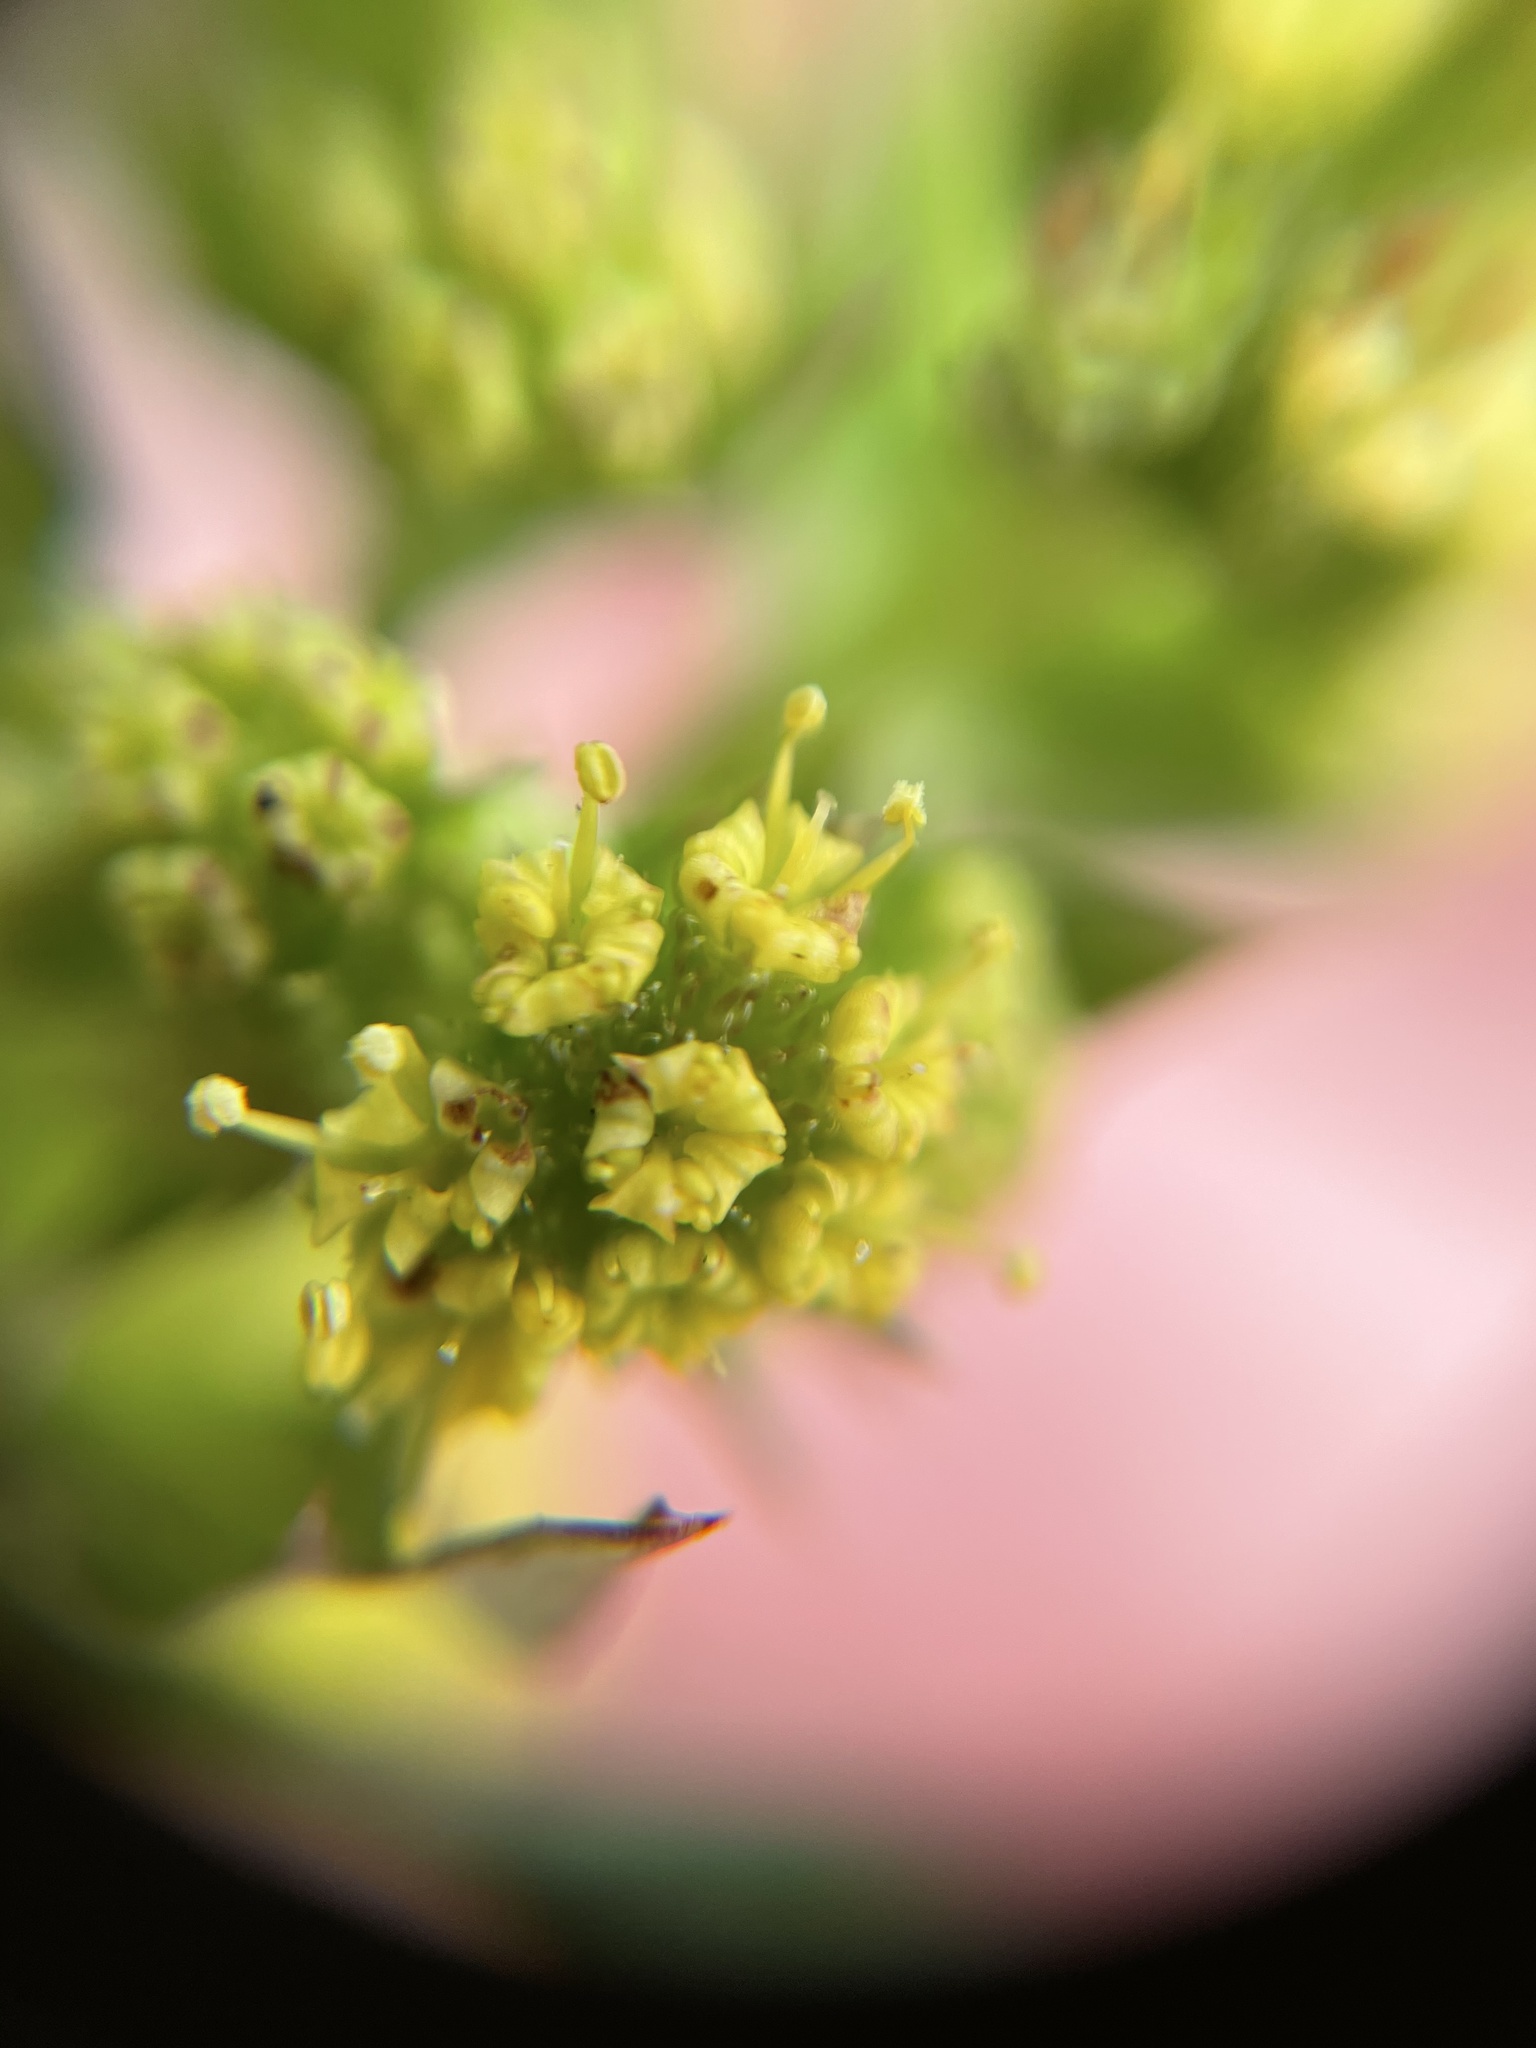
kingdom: Plantae
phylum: Tracheophyta
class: Magnoliopsida
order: Apiales
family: Apiaceae
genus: Sanicula
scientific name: Sanicula crassicaulis
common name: Western snakeroot
